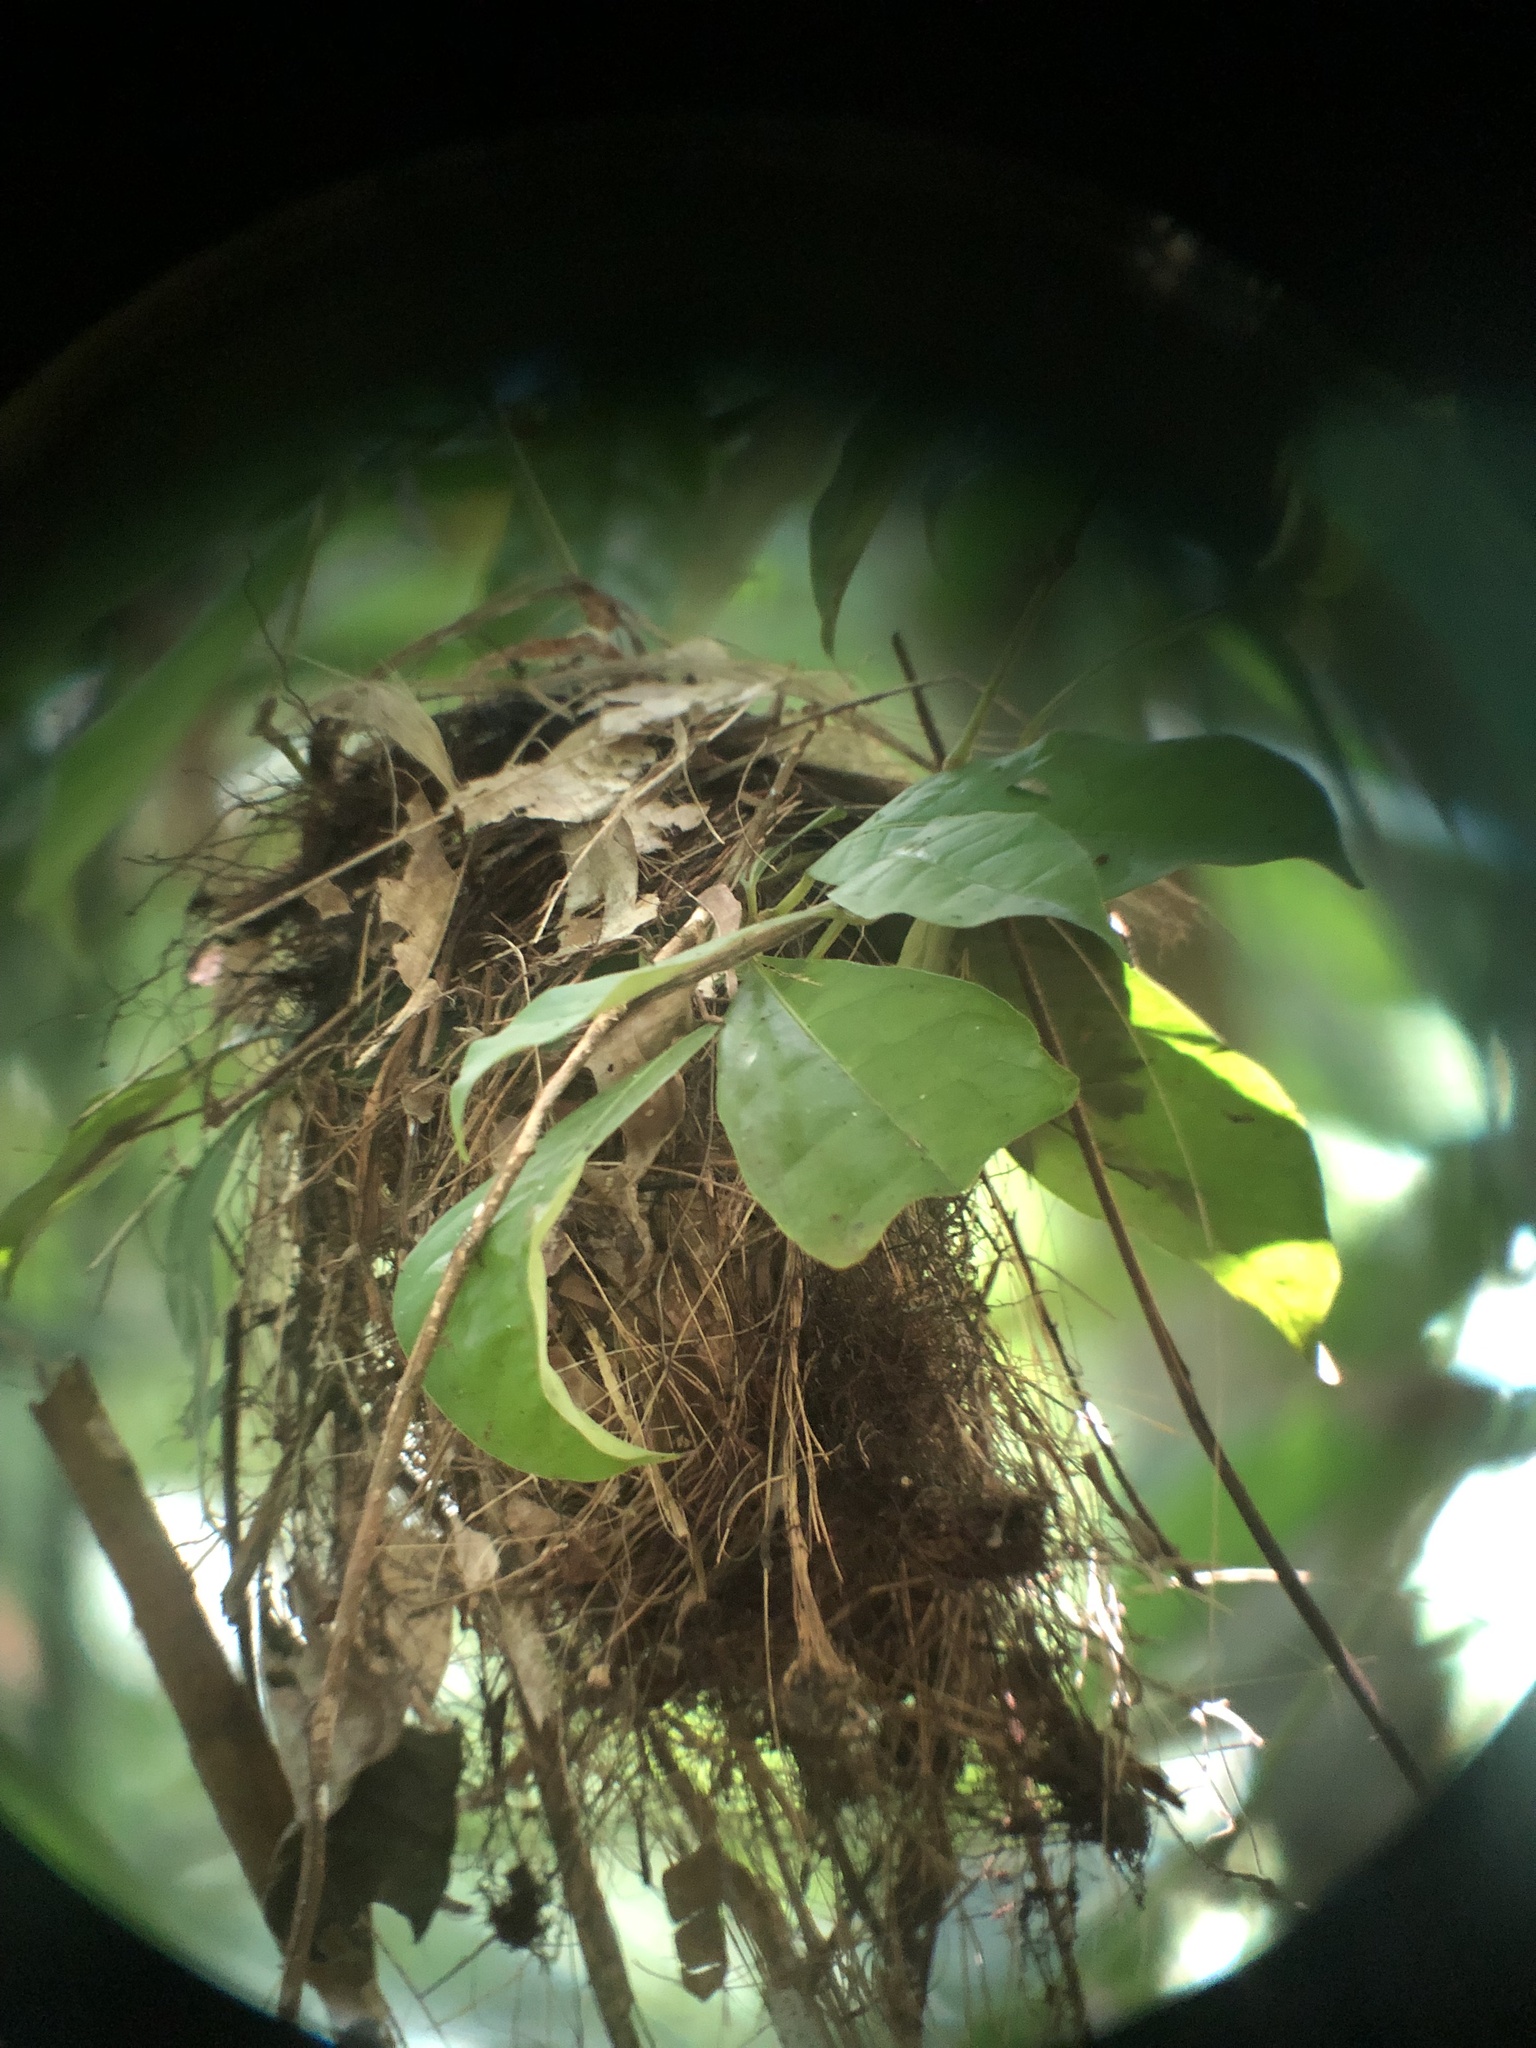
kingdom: Animalia
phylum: Chordata
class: Aves
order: Passeriformes
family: Tyrannidae
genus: Rhynchocyclus
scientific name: Rhynchocyclus olivaceus
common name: Olivaceous flatbill
